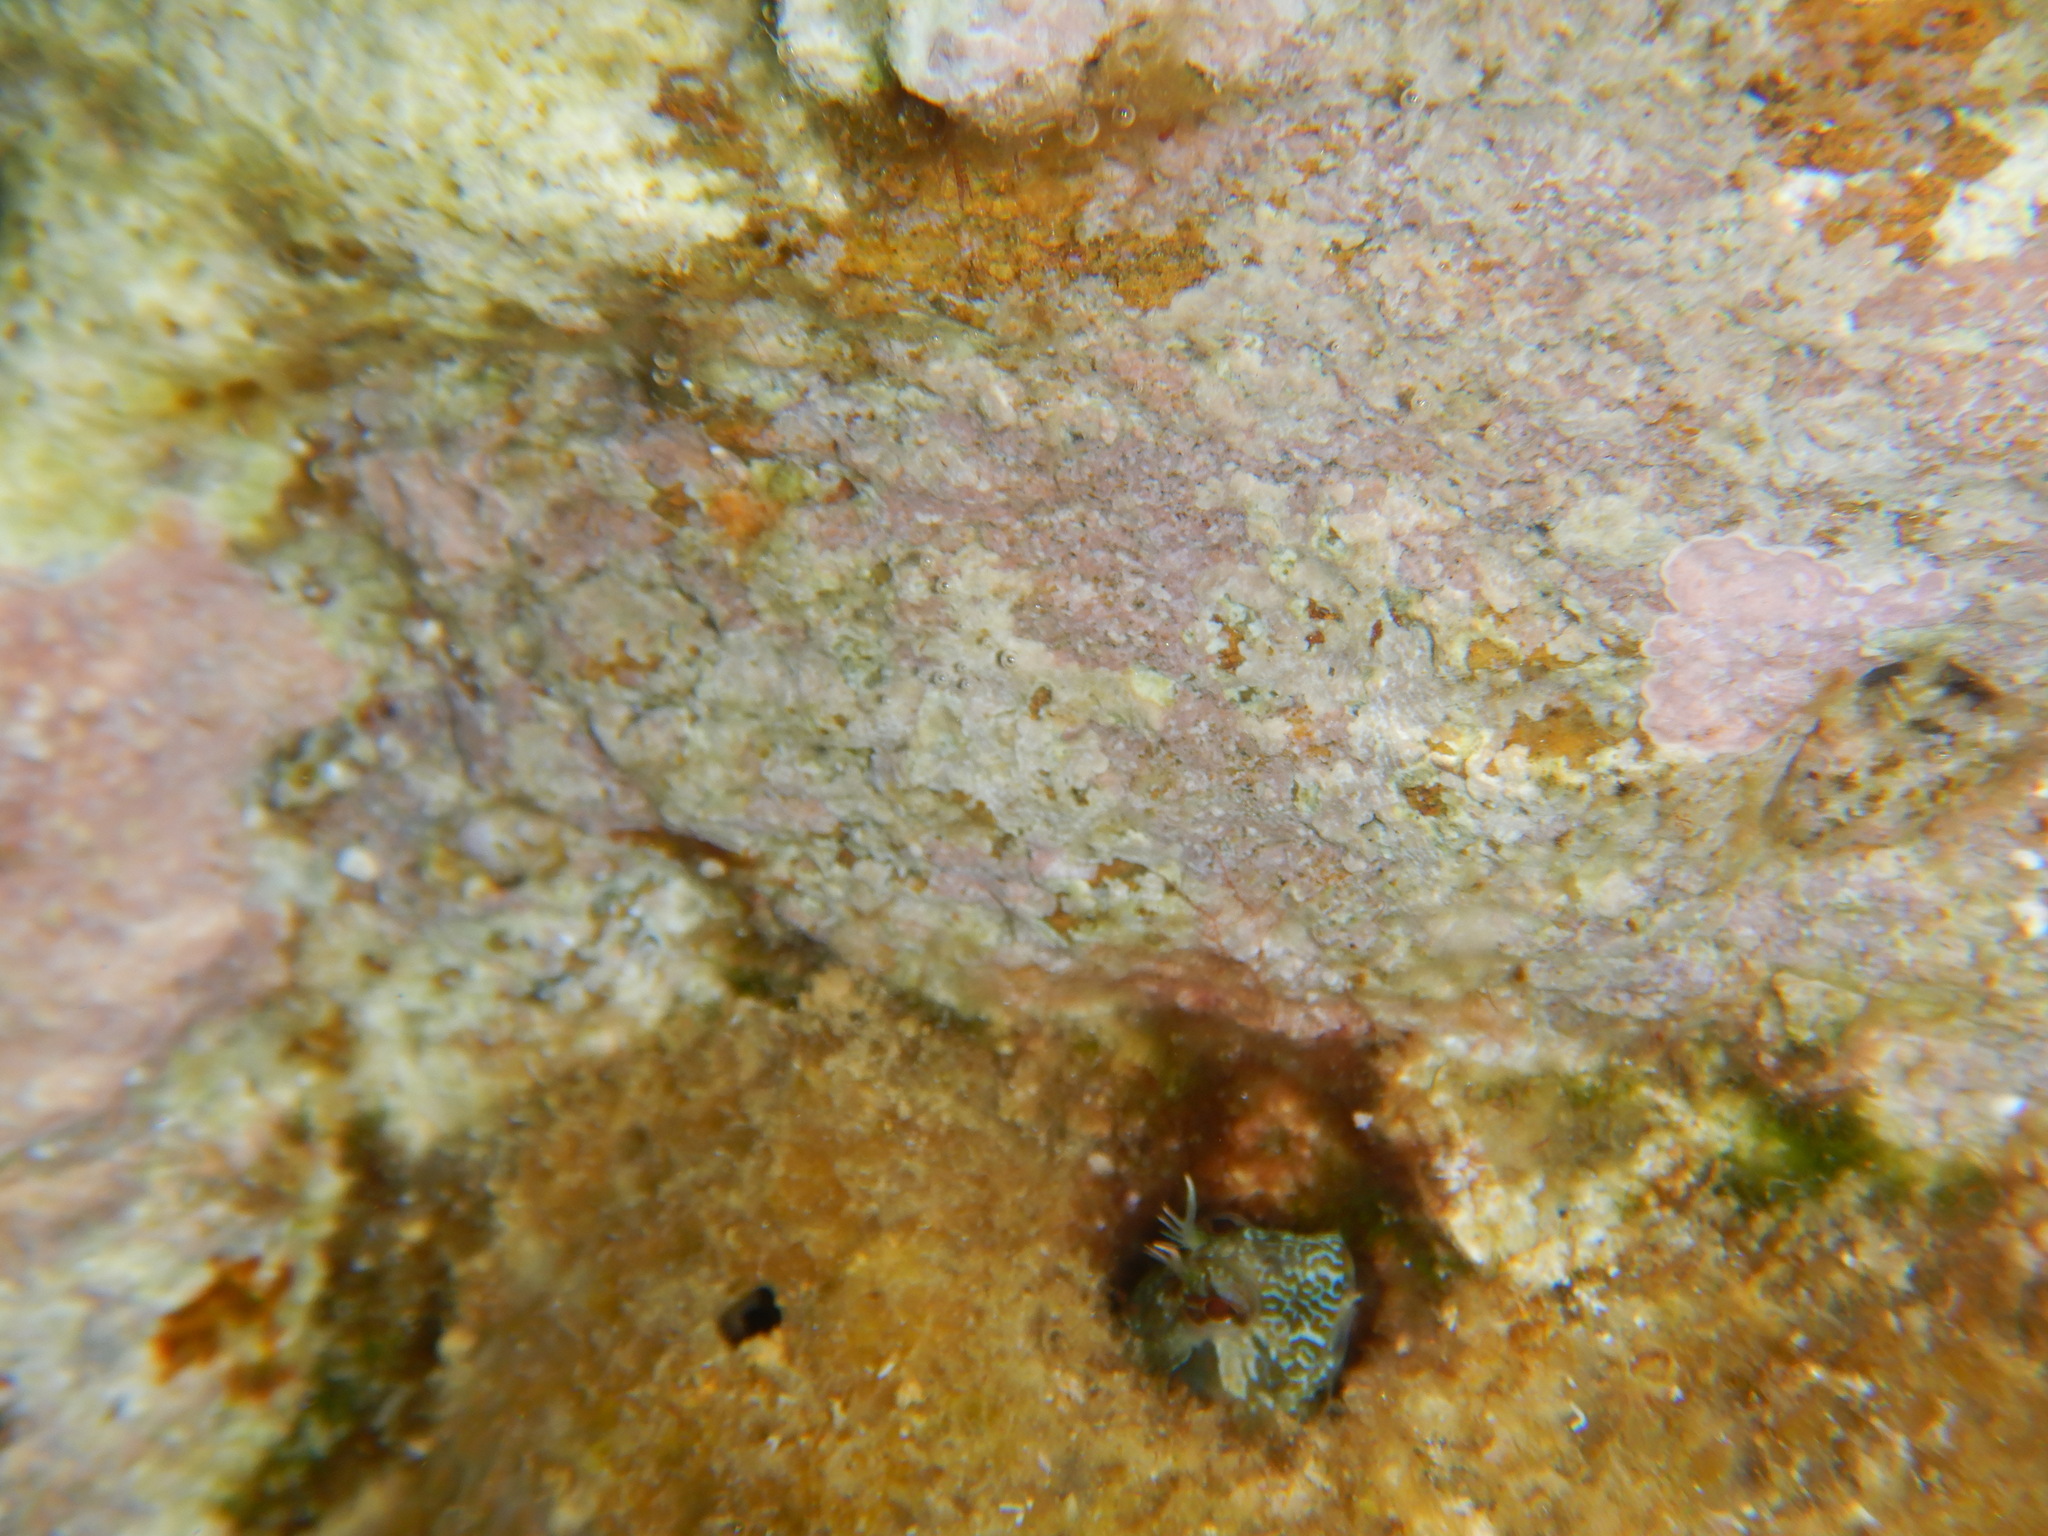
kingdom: Animalia
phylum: Chordata
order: Perciformes
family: Blenniidae
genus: Parablennius
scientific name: Parablennius incognitus
